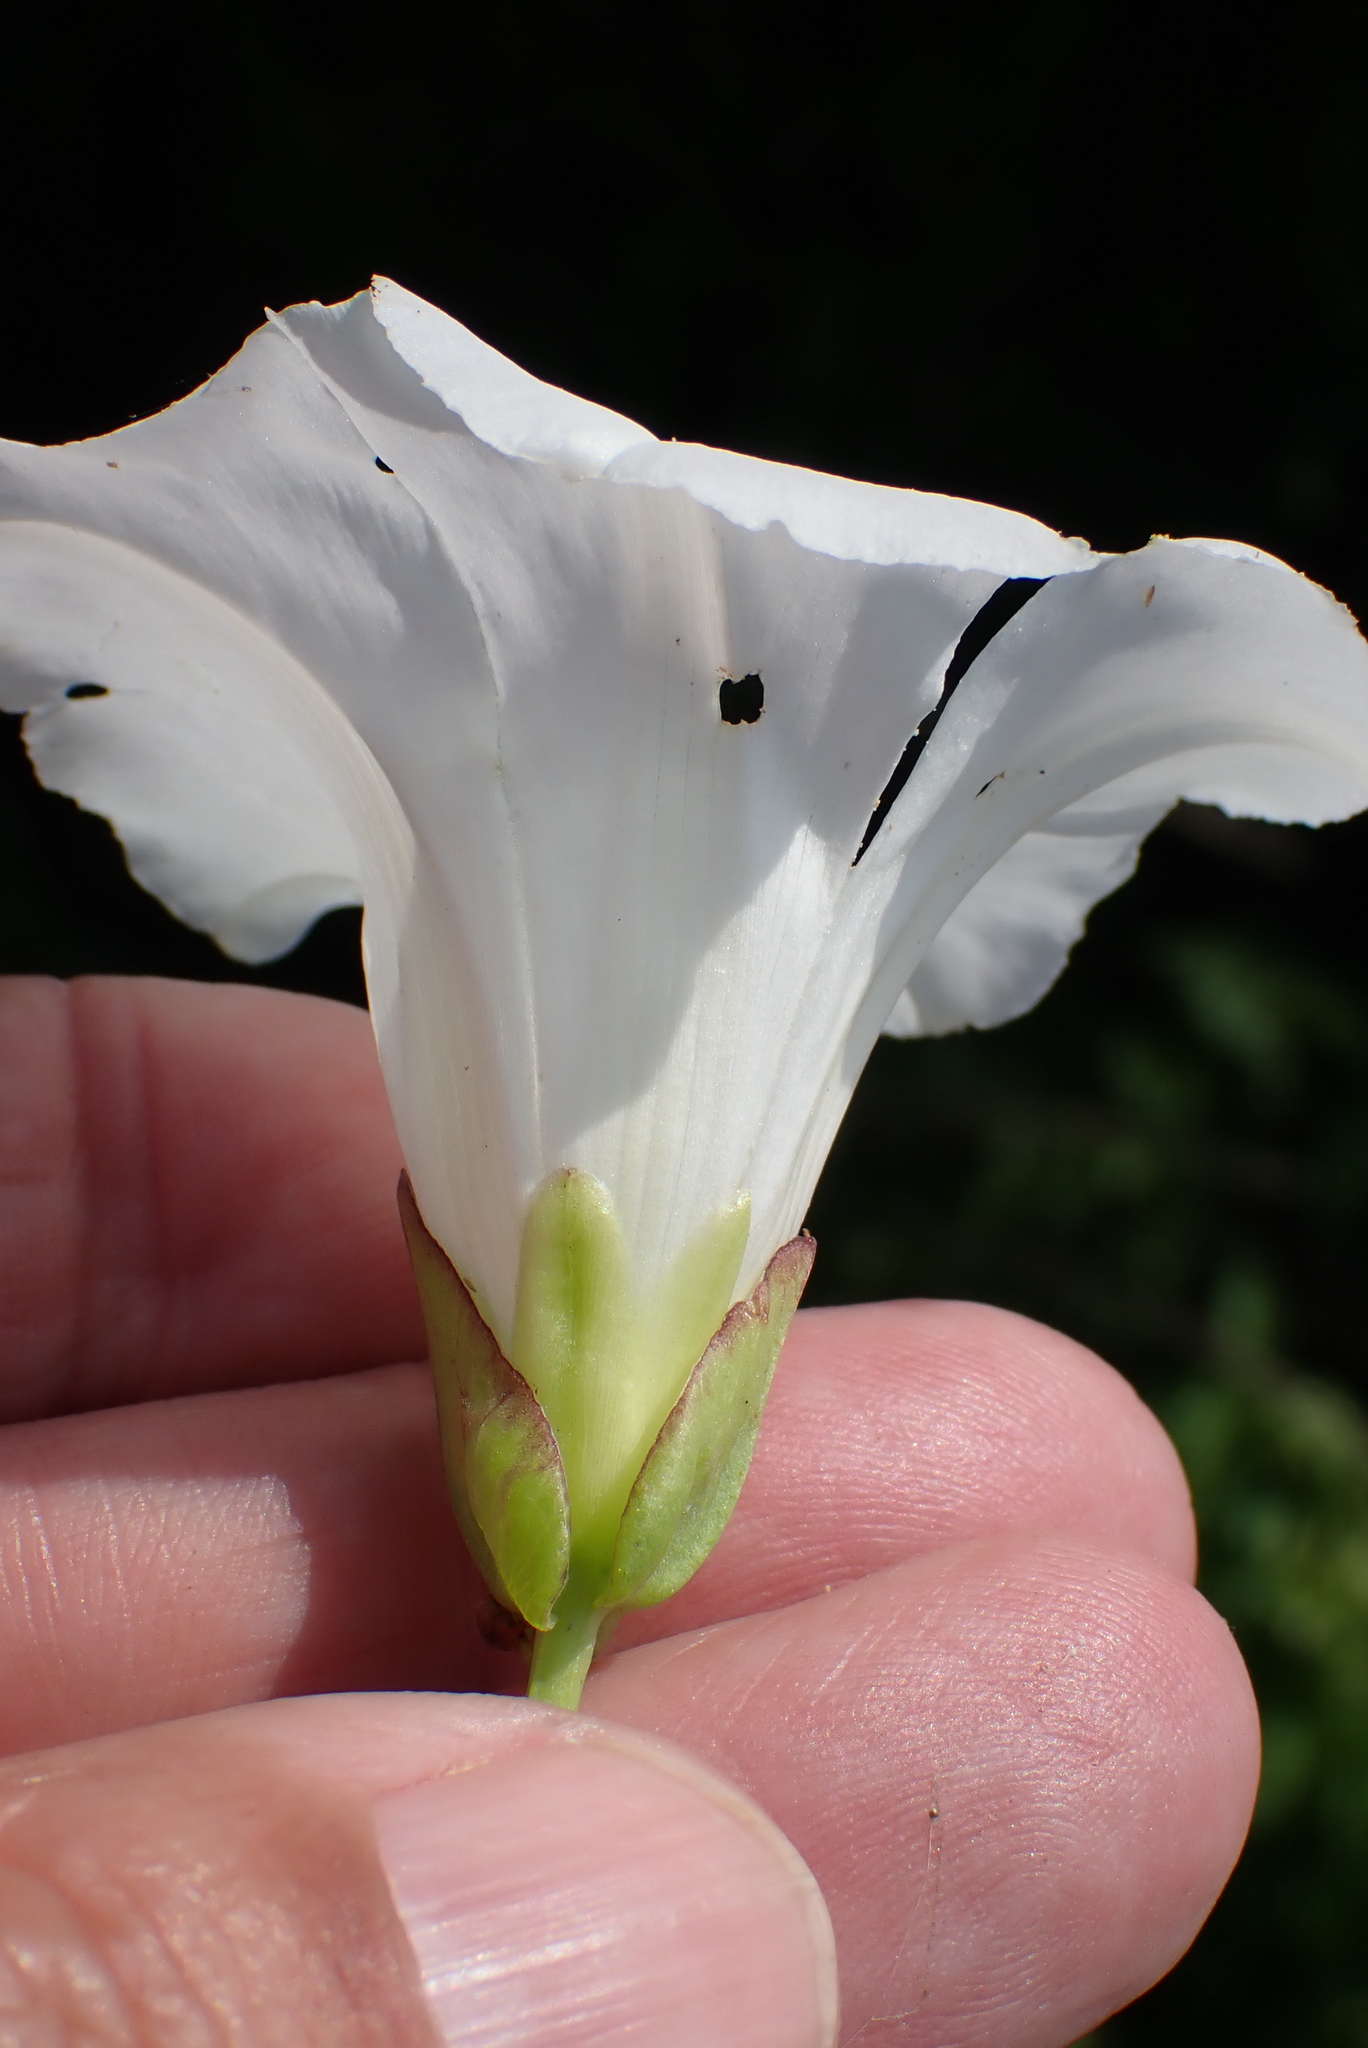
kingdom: Plantae
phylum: Tracheophyta
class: Magnoliopsida
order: Solanales
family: Convolvulaceae
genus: Calystegia
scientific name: Calystegia sepium
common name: Hedge bindweed
